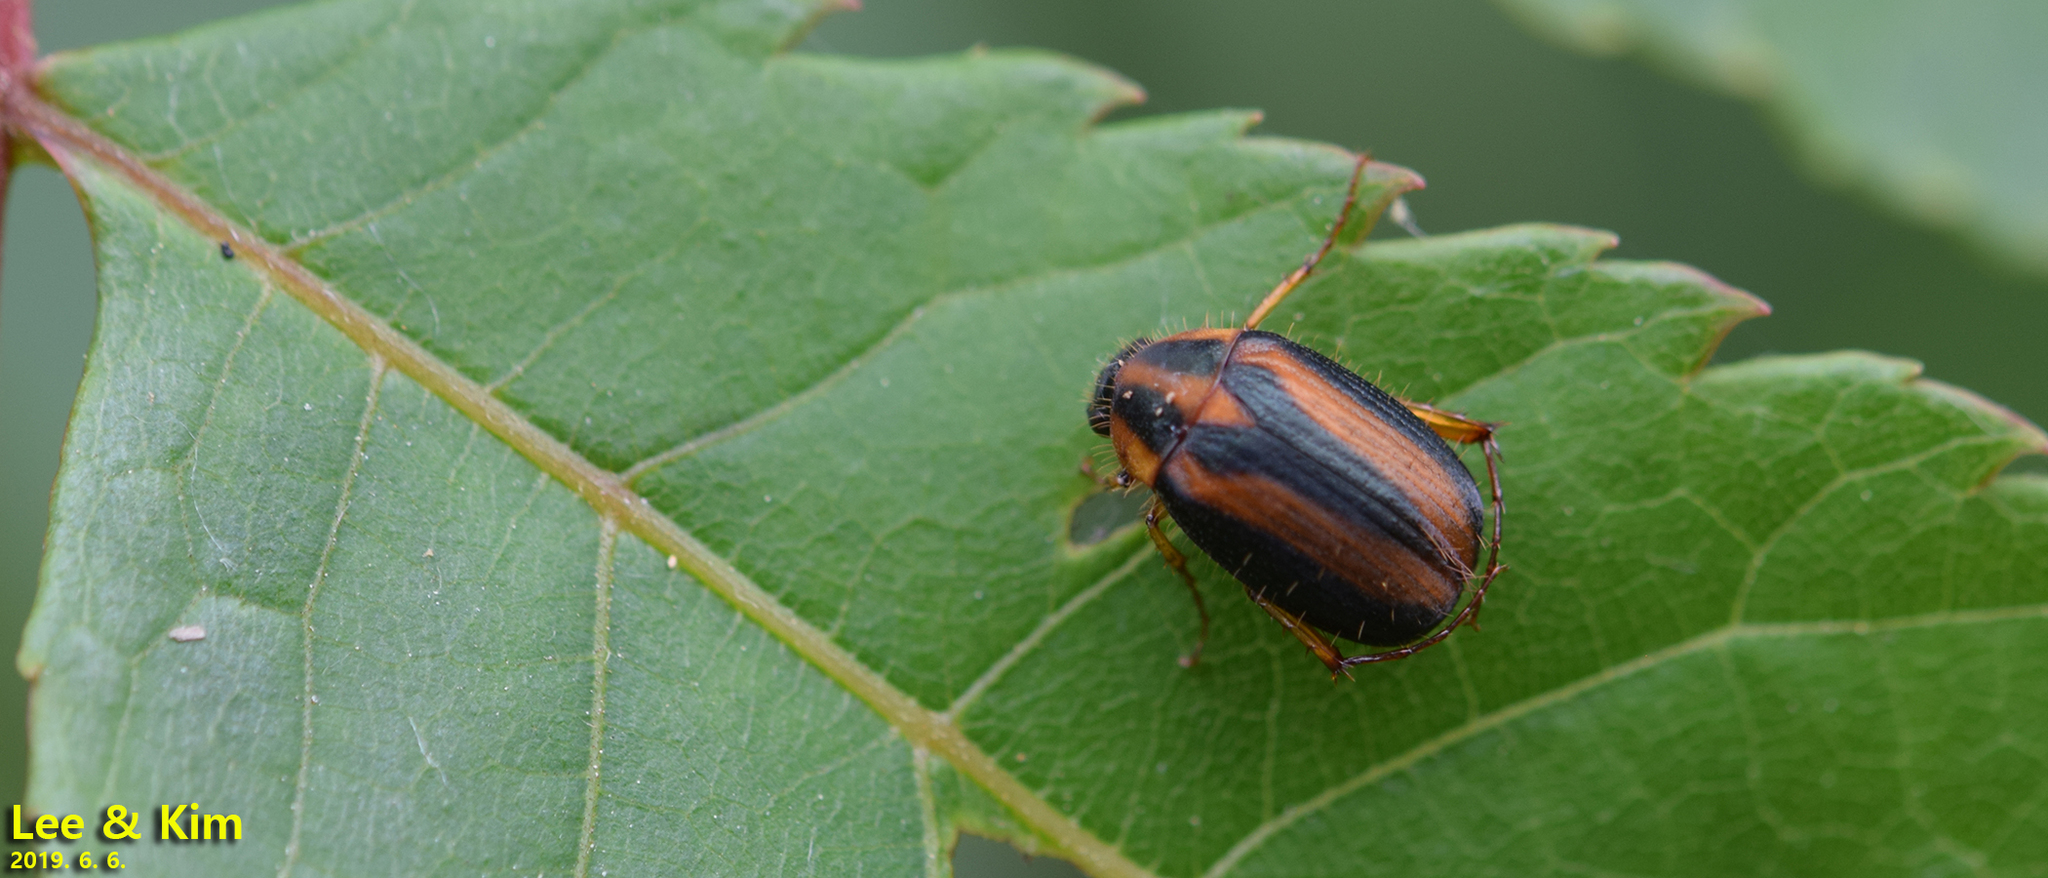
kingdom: Animalia
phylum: Arthropoda
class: Insecta
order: Coleoptera
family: Scarabaeidae
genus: Gastroserica
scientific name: Gastroserica herzi
